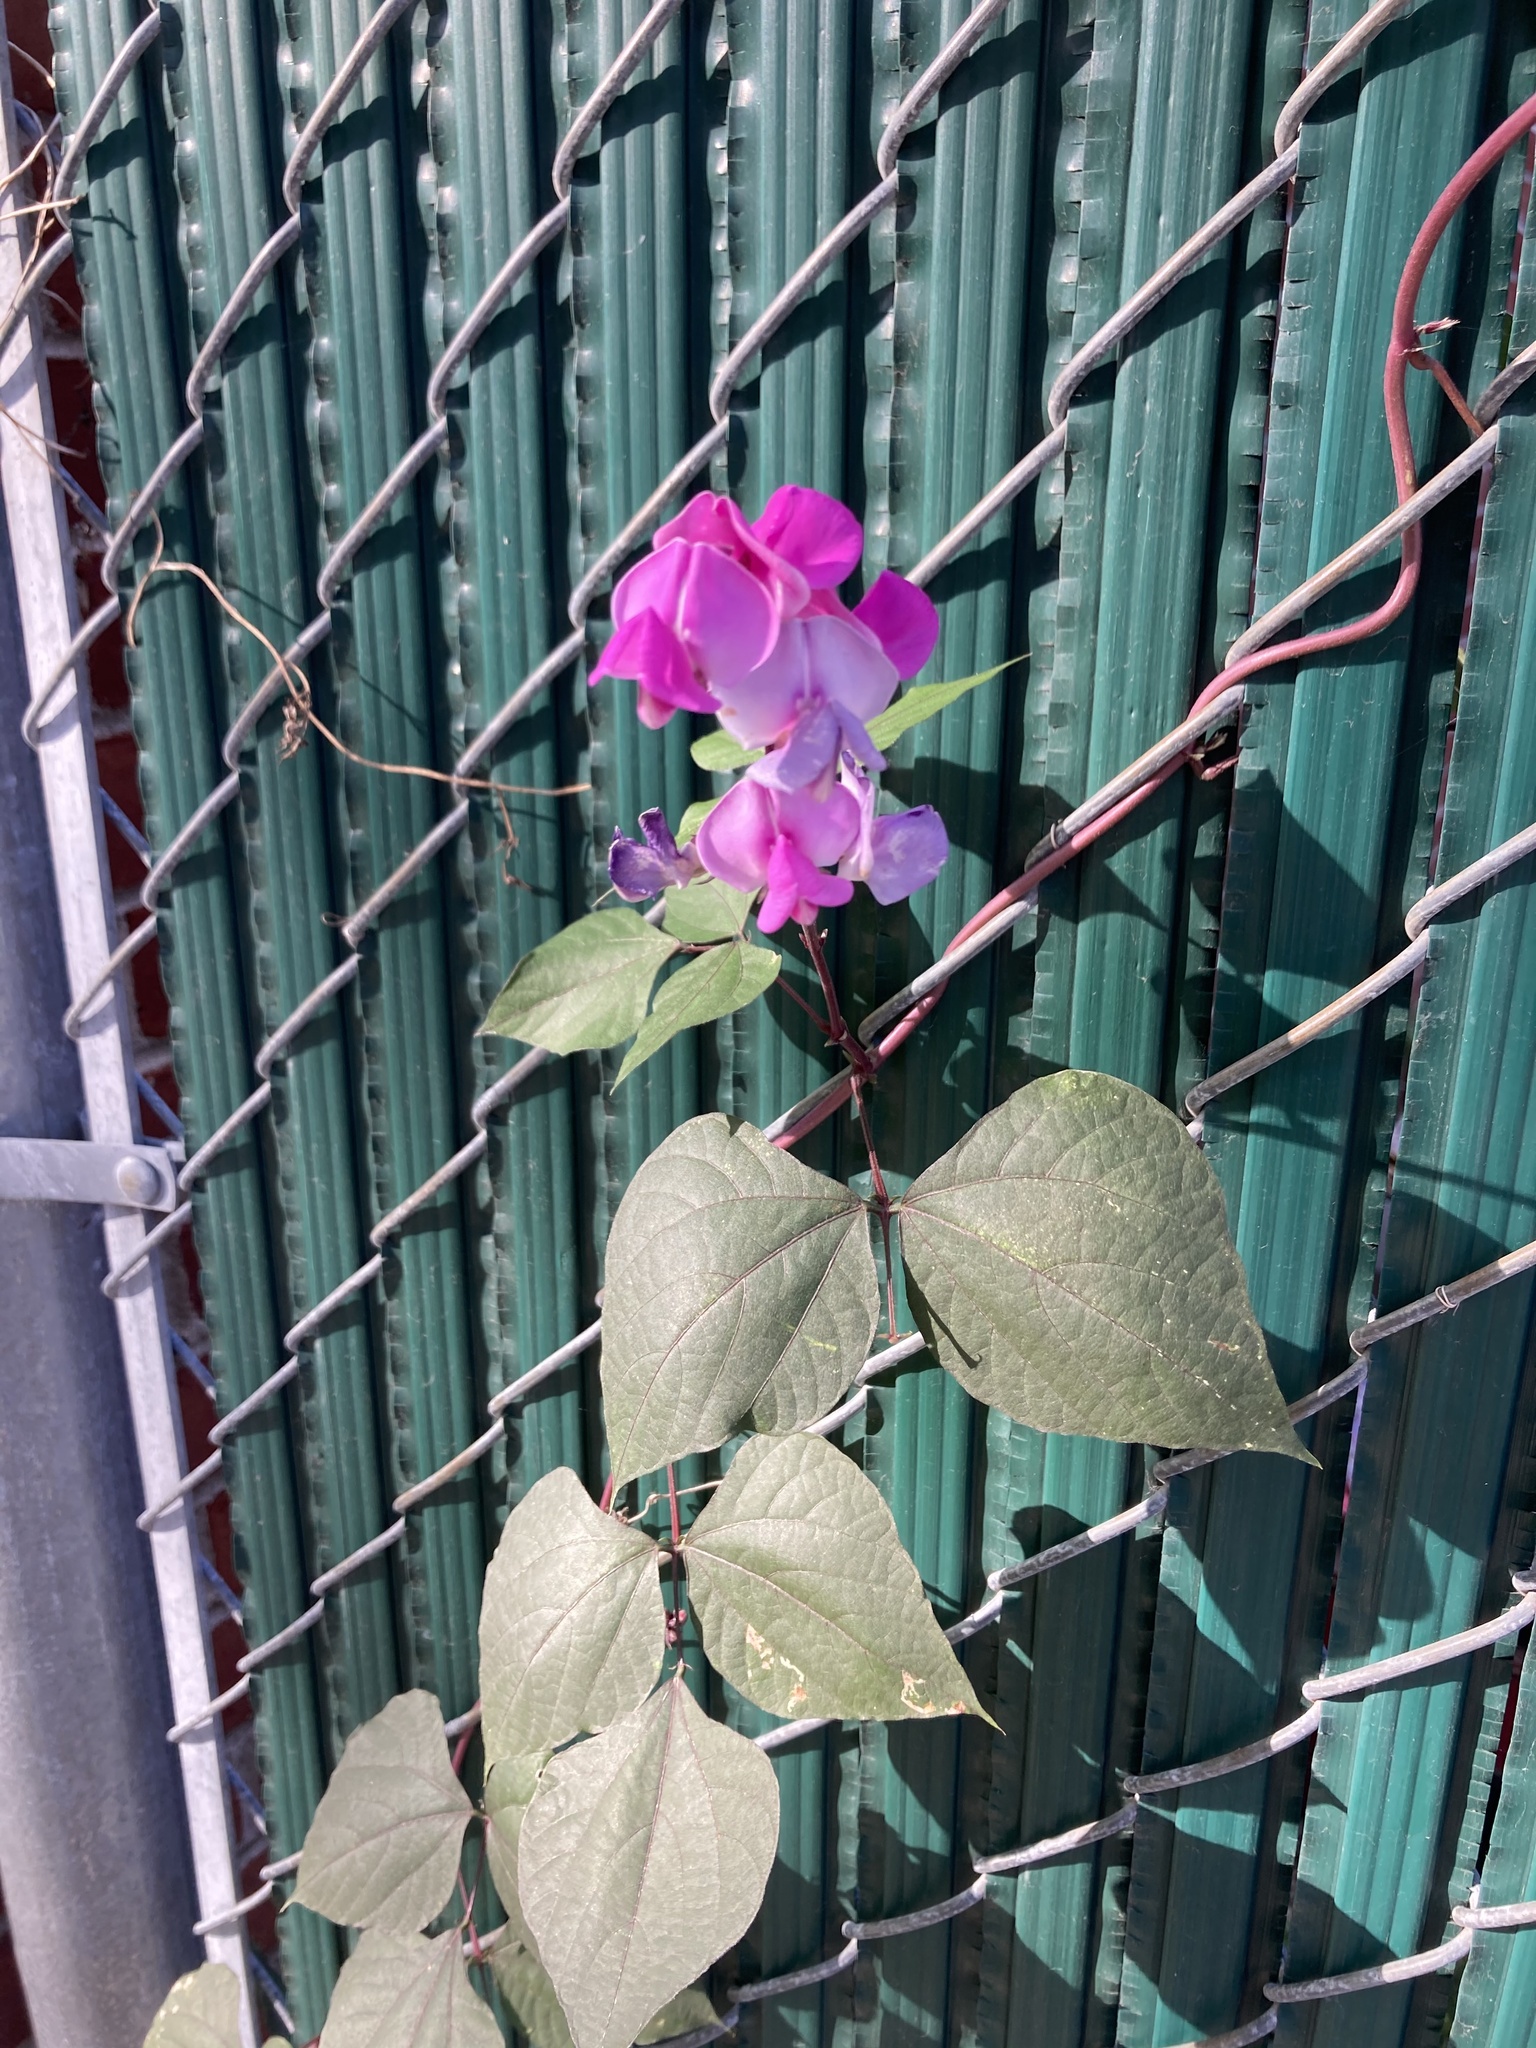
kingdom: Plantae
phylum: Tracheophyta
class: Magnoliopsida
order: Fabales
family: Fabaceae
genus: Lablab
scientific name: Lablab purpureus
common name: Lablab-bean
